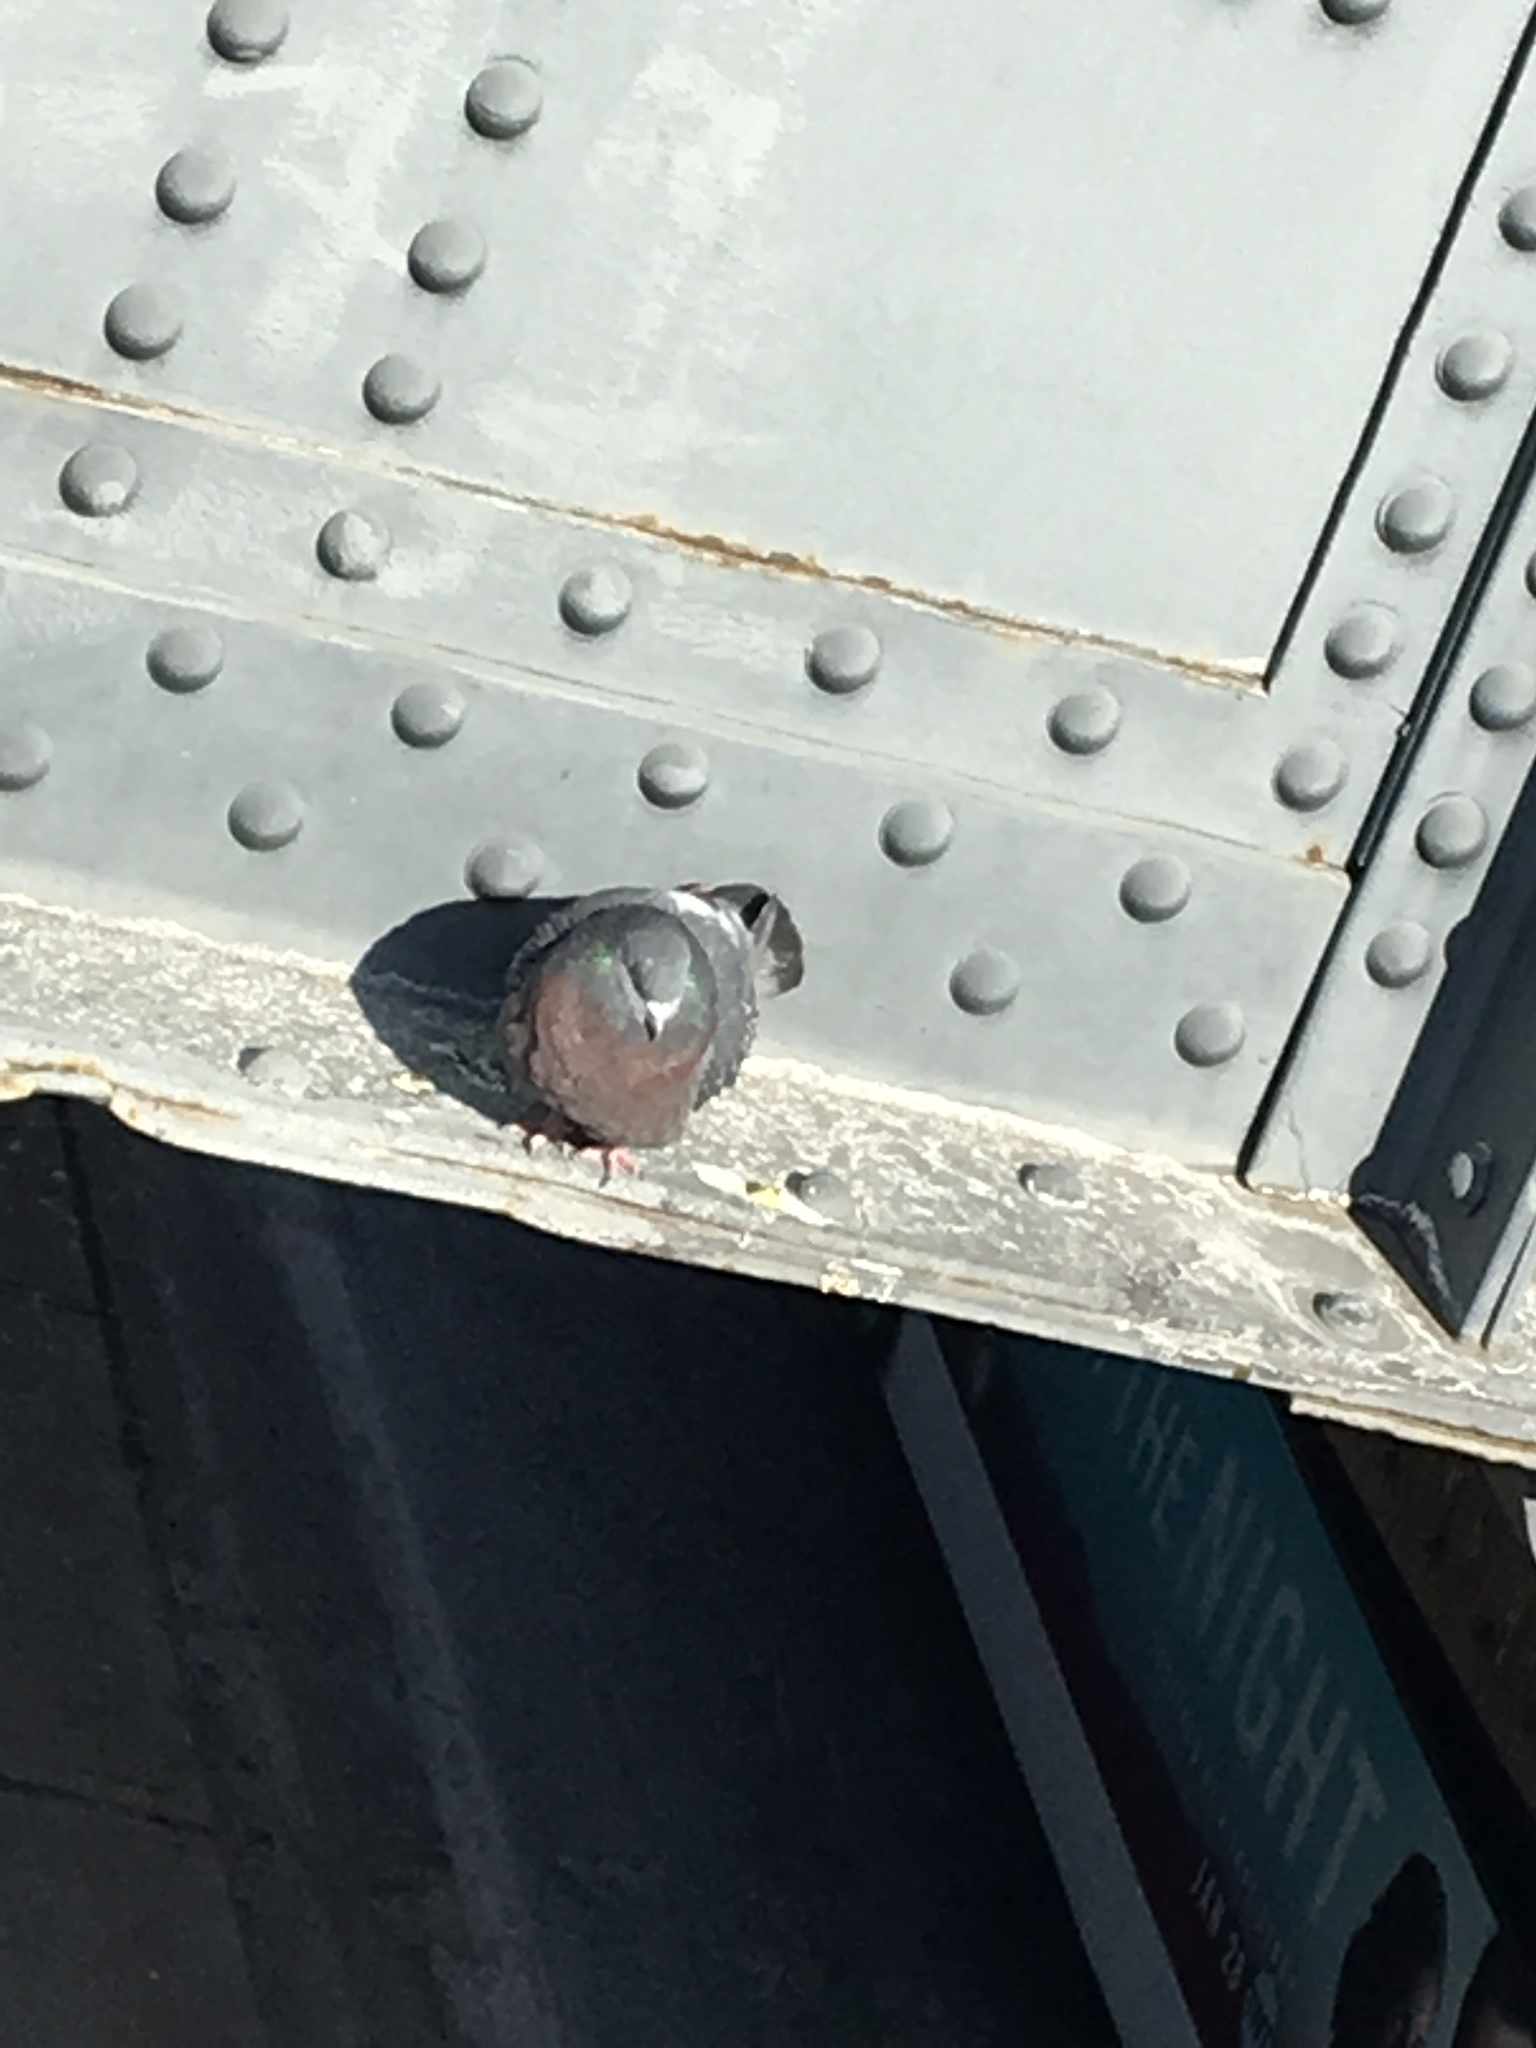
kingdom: Animalia
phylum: Chordata
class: Aves
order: Columbiformes
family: Columbidae
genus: Columba
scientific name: Columba livia
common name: Rock pigeon
